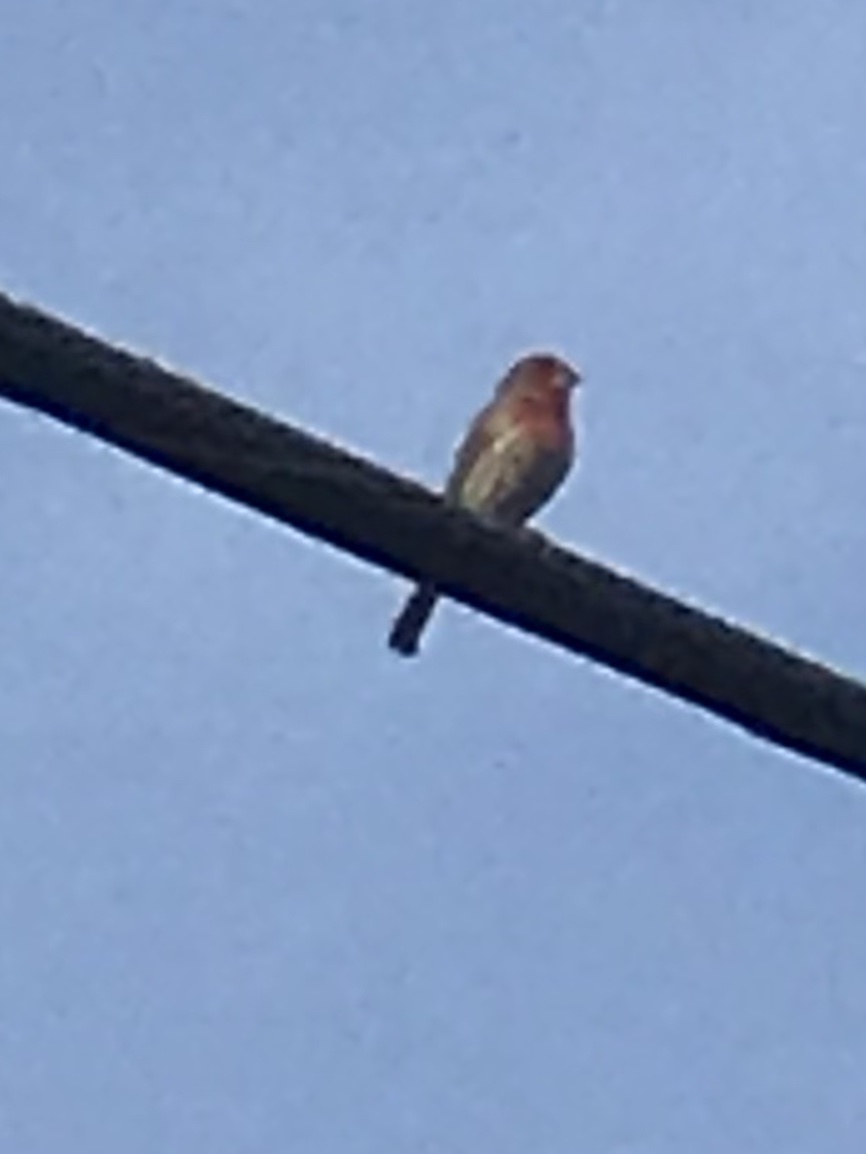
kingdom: Animalia
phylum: Chordata
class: Aves
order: Passeriformes
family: Fringillidae
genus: Haemorhous
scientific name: Haemorhous mexicanus
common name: House finch
